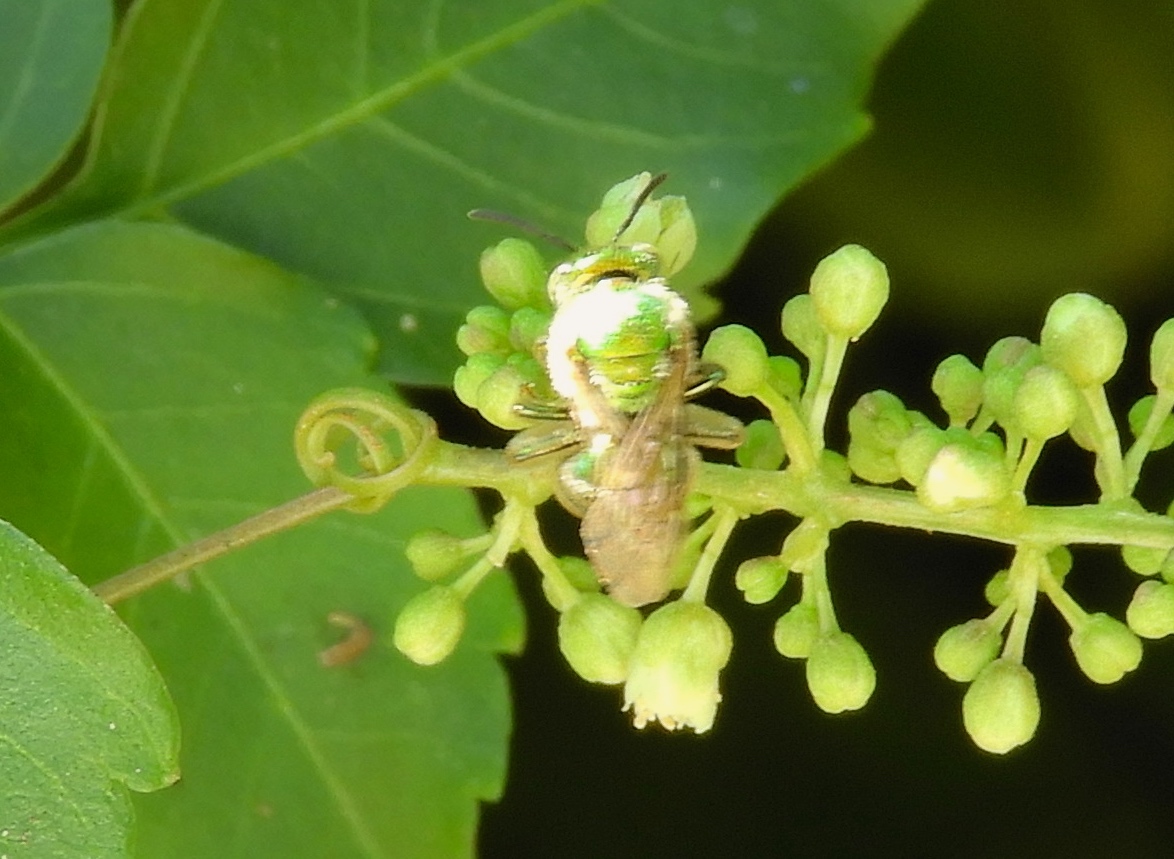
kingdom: Animalia
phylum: Arthropoda
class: Insecta
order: Hymenoptera
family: Halictidae
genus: Augochloropsis
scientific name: Augochloropsis
